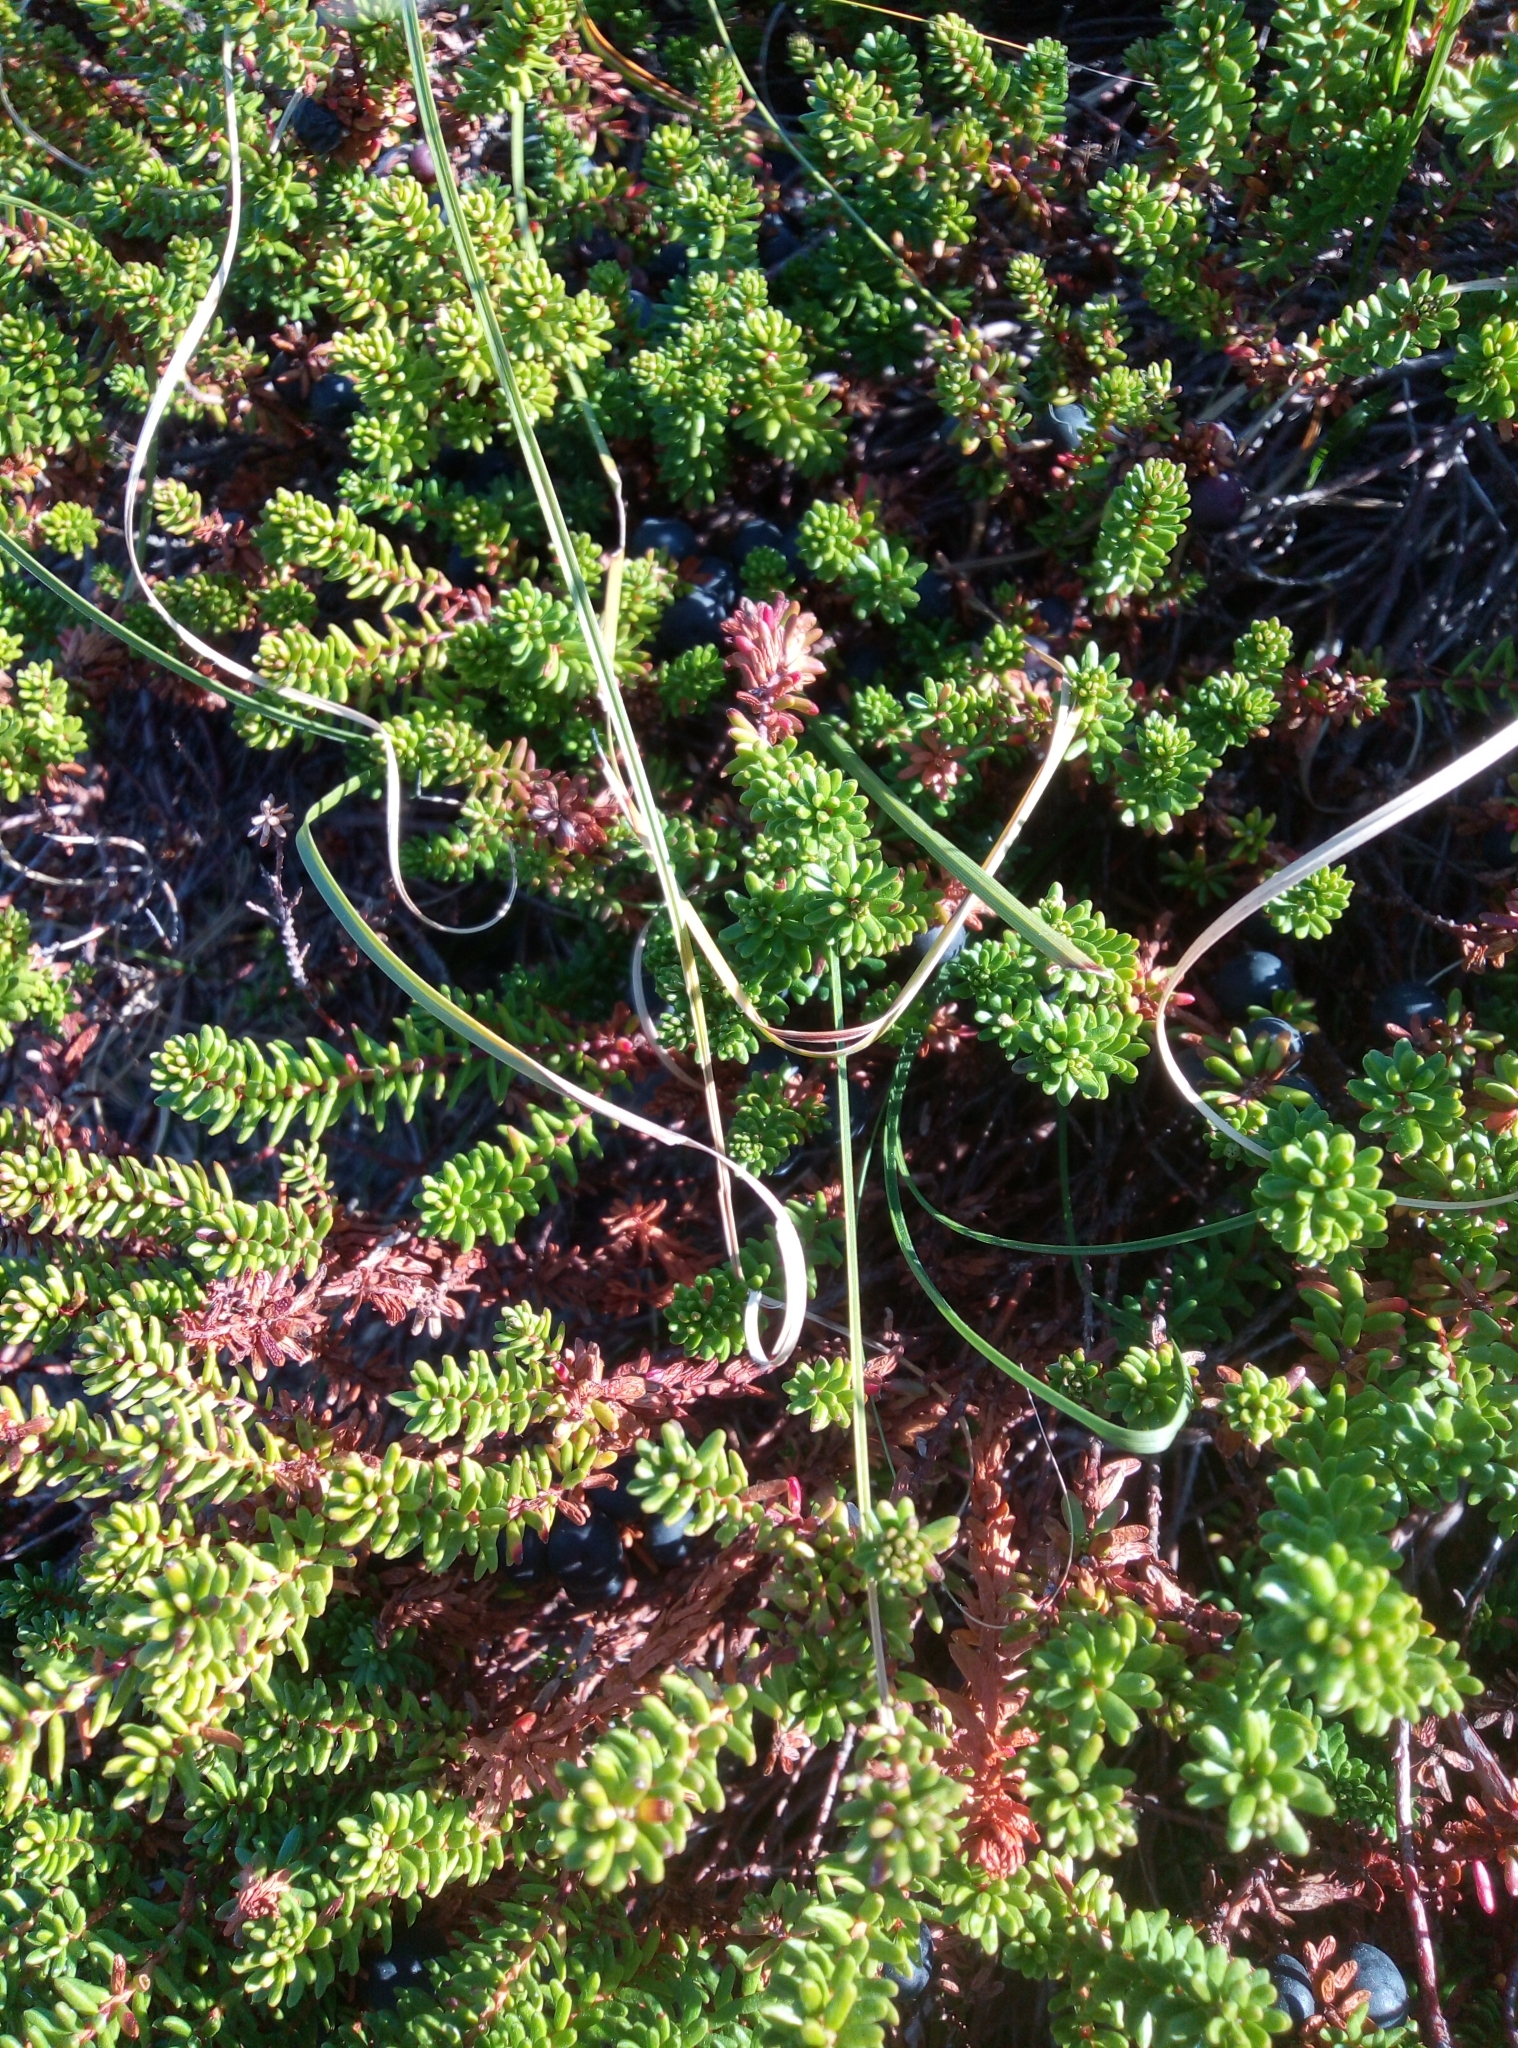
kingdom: Plantae
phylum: Tracheophyta
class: Magnoliopsida
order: Ericales
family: Ericaceae
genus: Empetrum
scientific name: Empetrum nigrum
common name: Black crowberry
